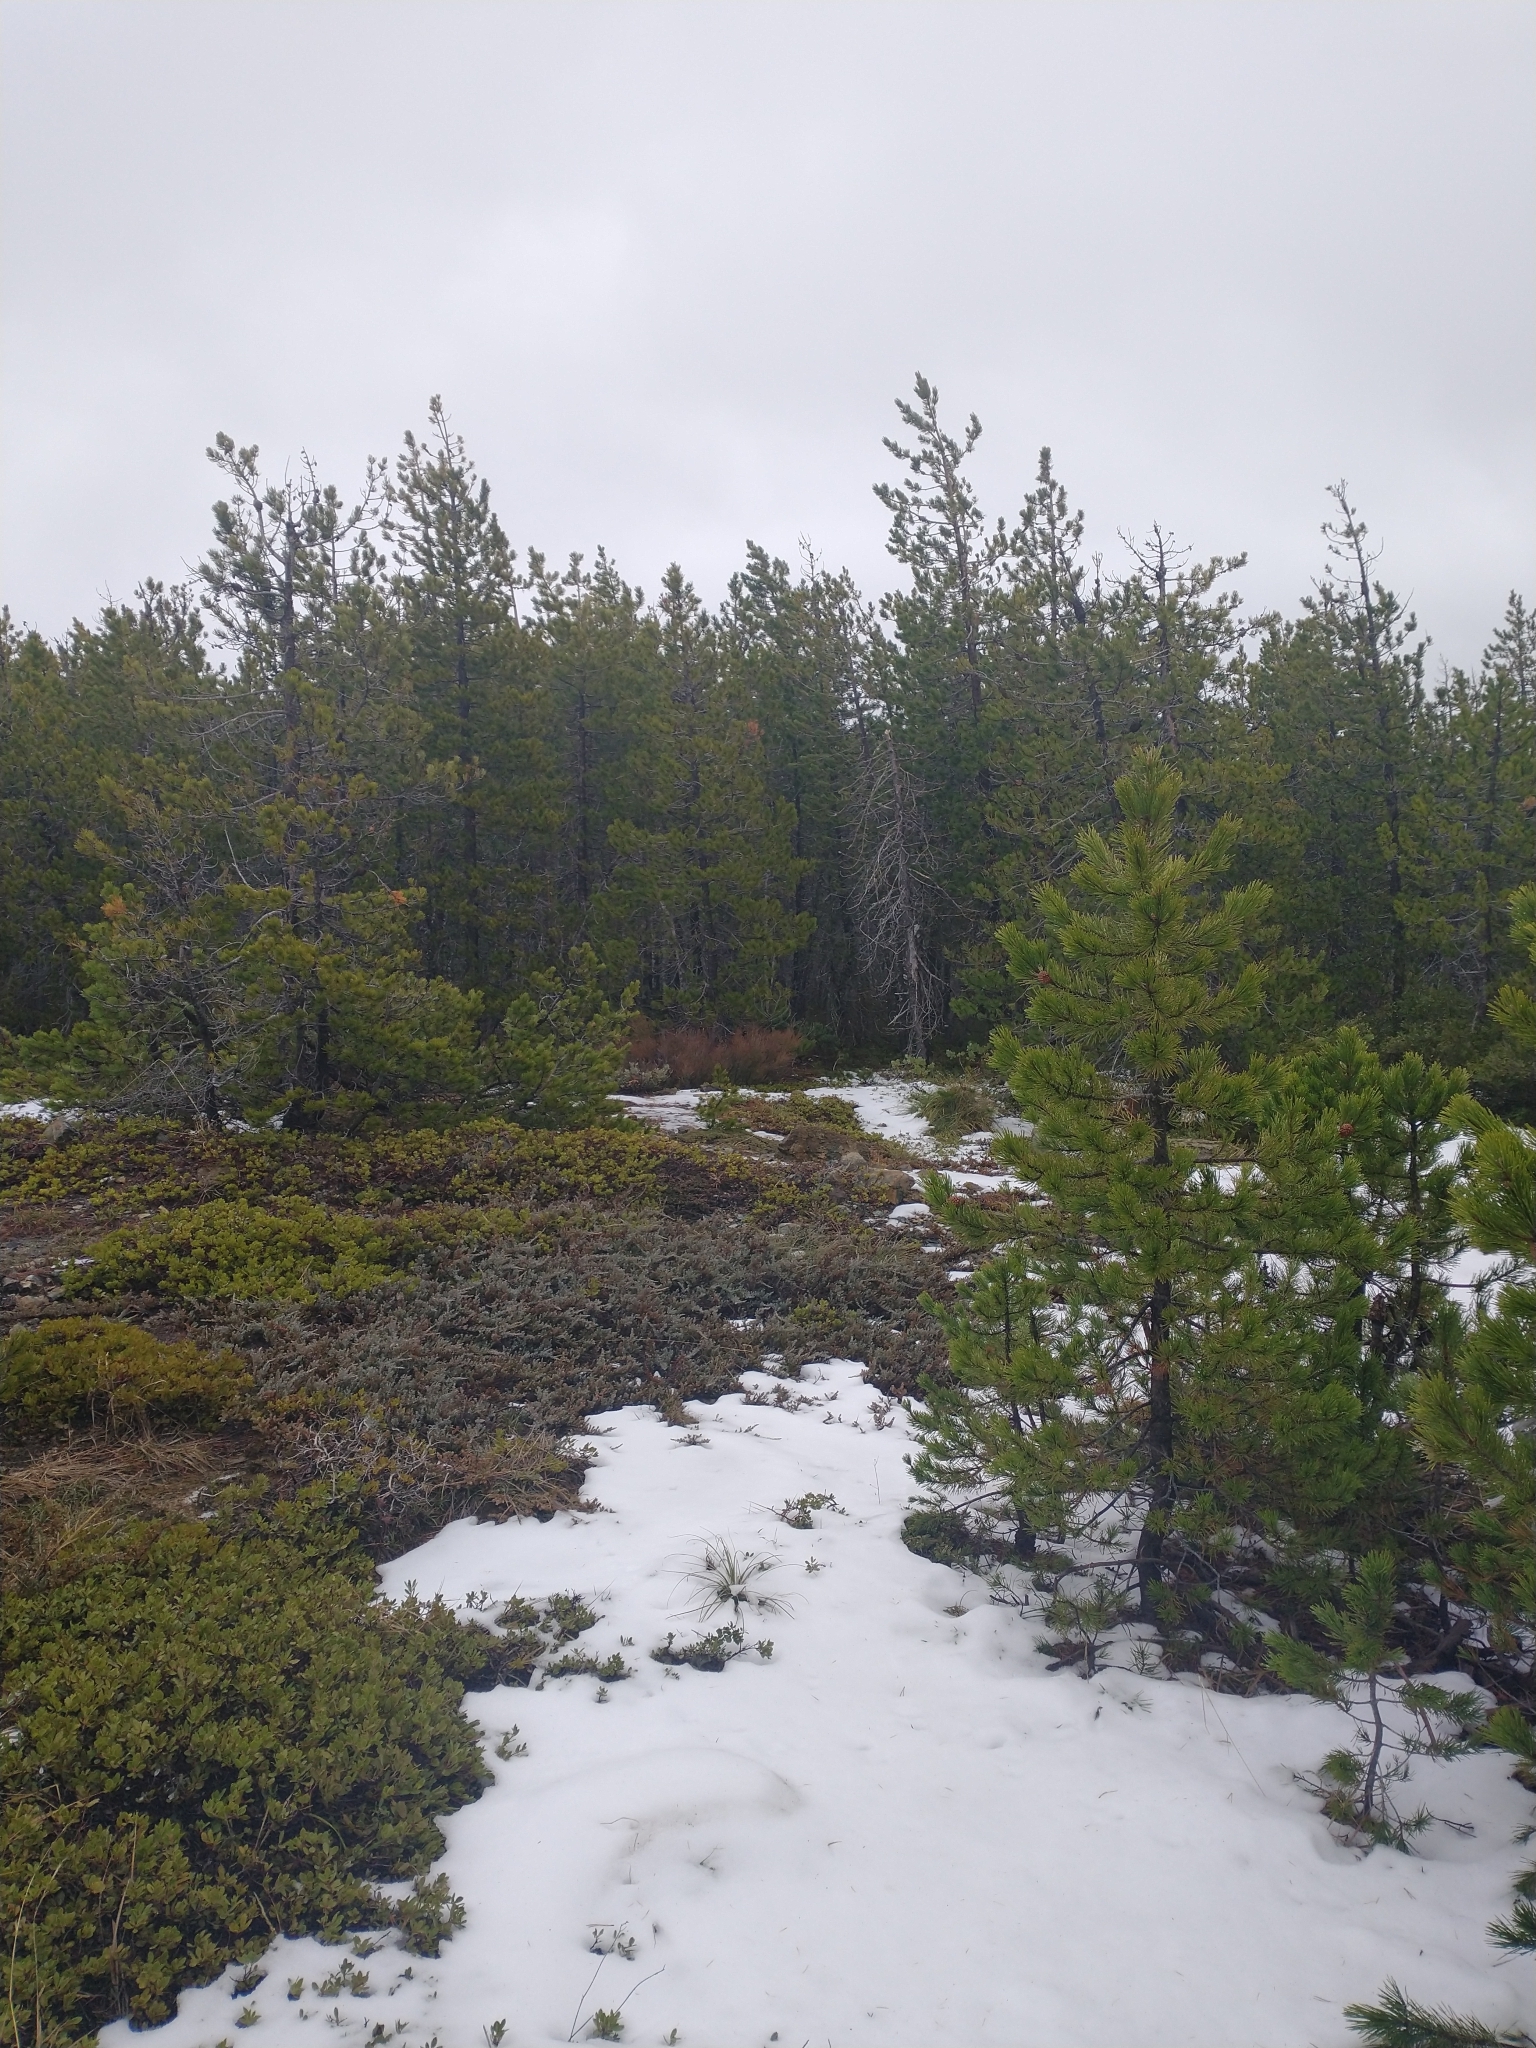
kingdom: Plantae
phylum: Tracheophyta
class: Pinopsida
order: Pinales
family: Pinaceae
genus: Pinus
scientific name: Pinus contorta
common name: Lodgepole pine
